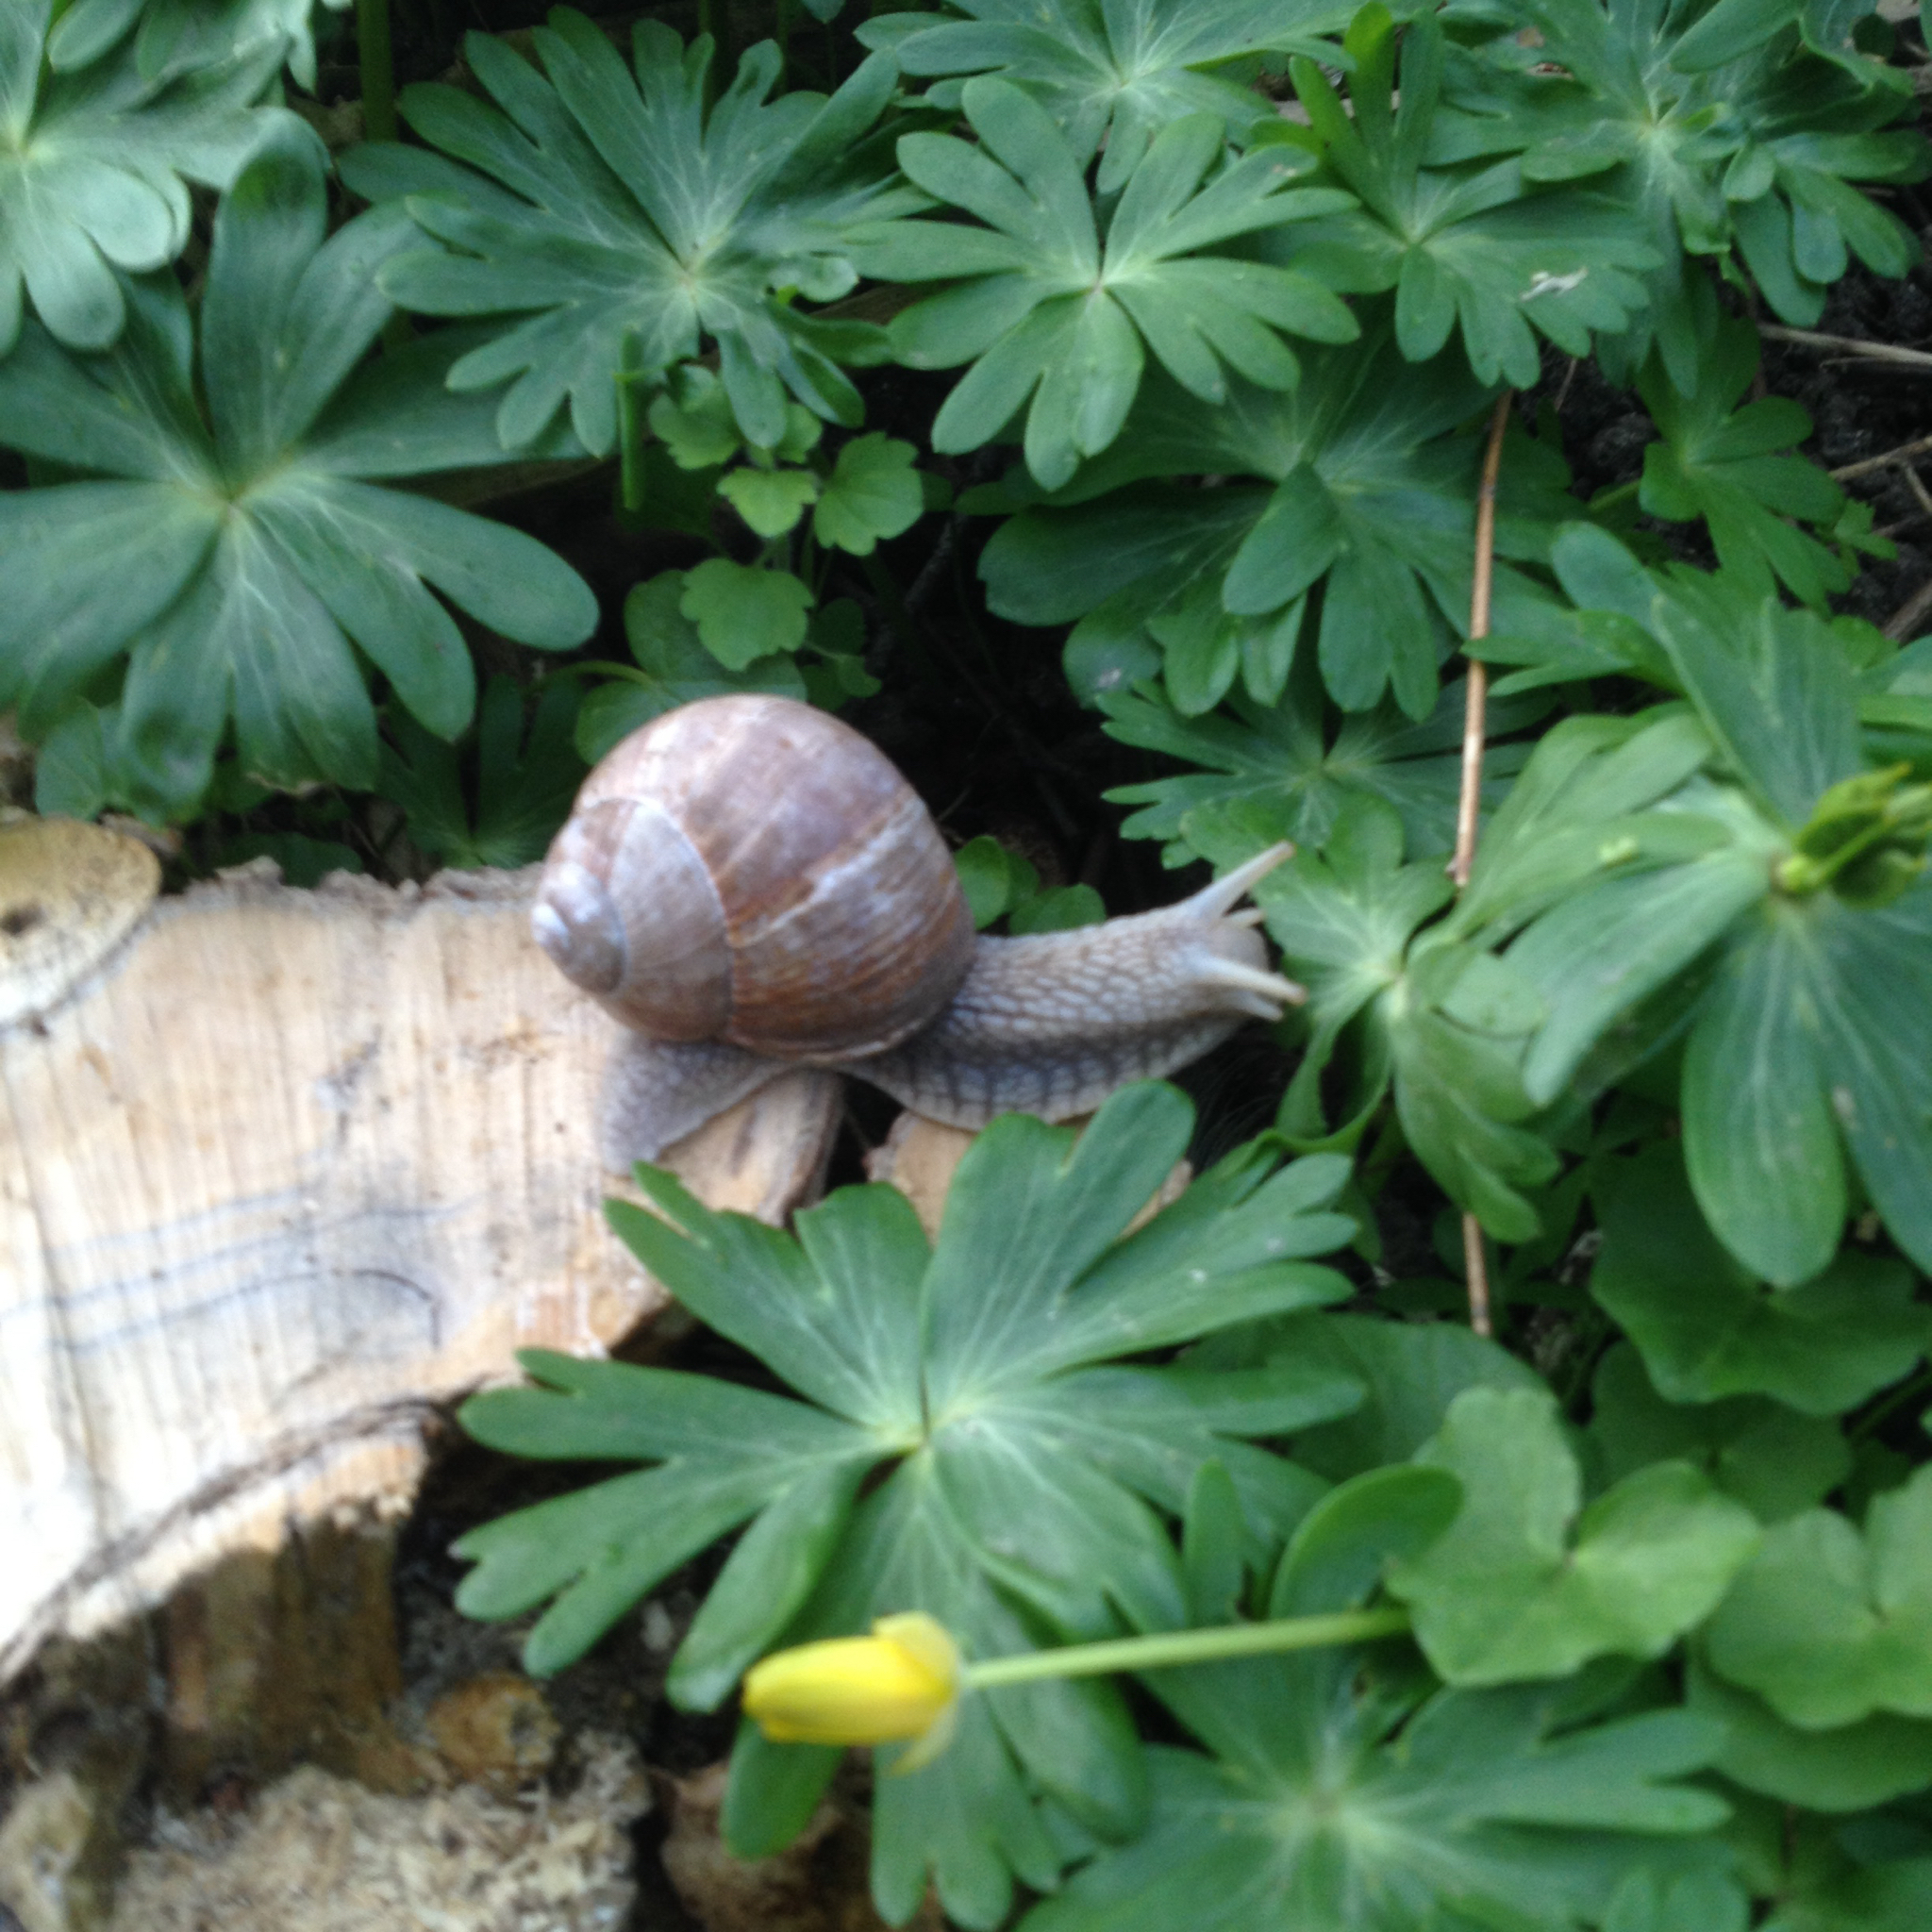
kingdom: Animalia
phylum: Mollusca
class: Gastropoda
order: Stylommatophora
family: Helicidae
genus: Helix
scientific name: Helix pomatia
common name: Roman snail
